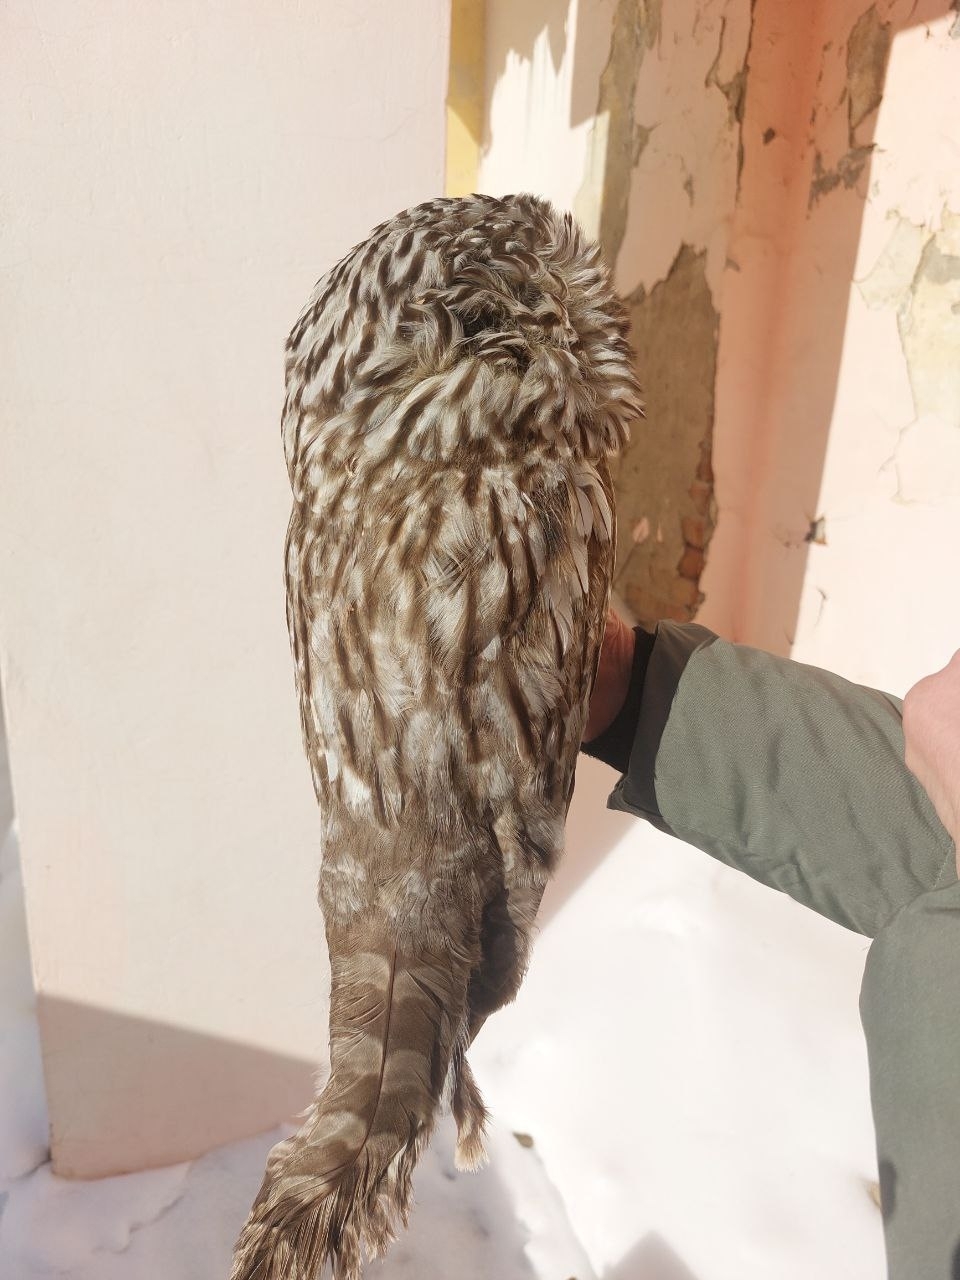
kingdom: Animalia
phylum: Chordata
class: Aves
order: Strigiformes
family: Strigidae
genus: Strix
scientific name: Strix uralensis
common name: Ural owl
